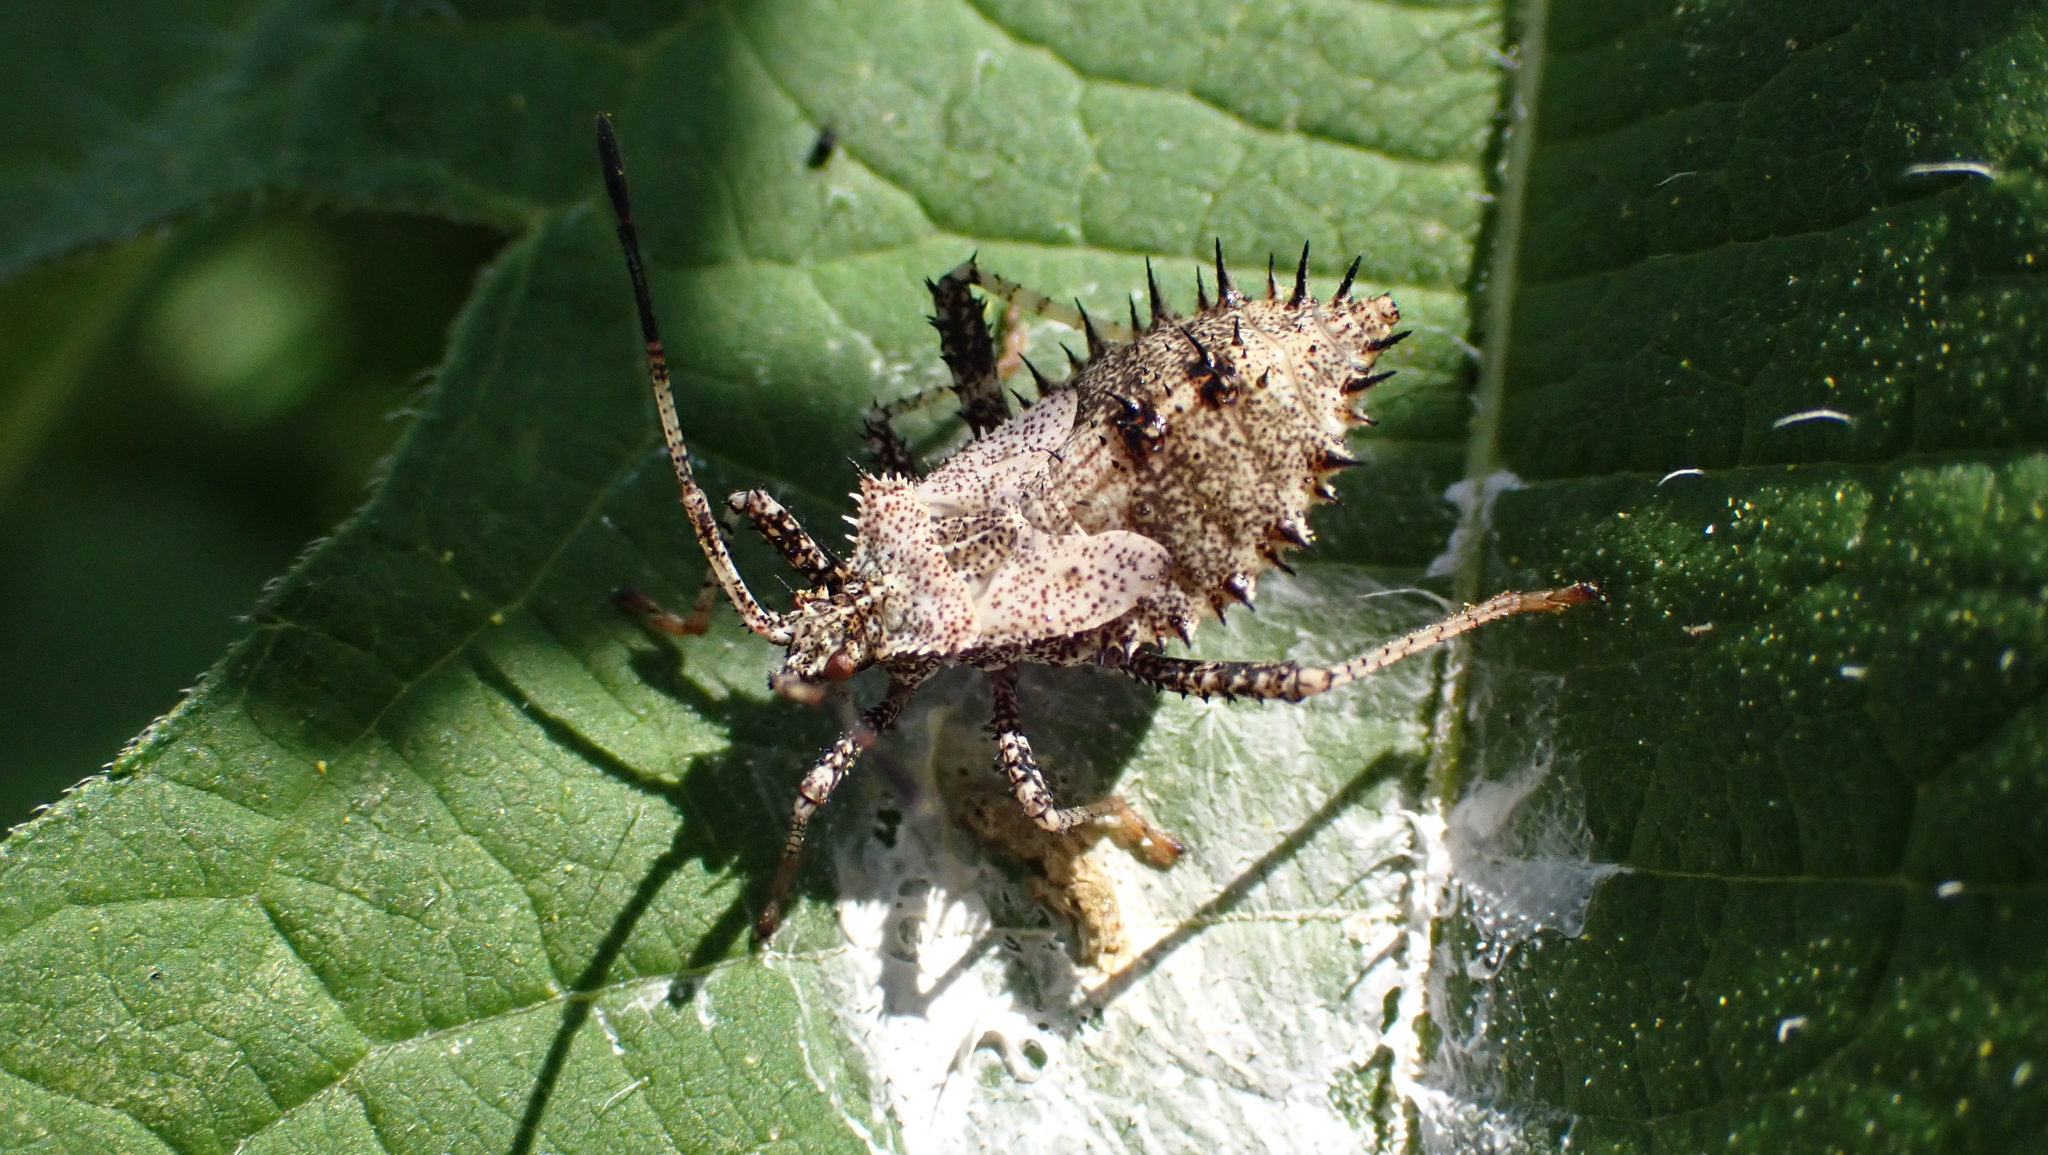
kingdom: Animalia
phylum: Arthropoda
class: Insecta
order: Hemiptera
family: Coreidae
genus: Euthochtha
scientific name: Euthochtha galeator
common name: Helmeted squash bug
